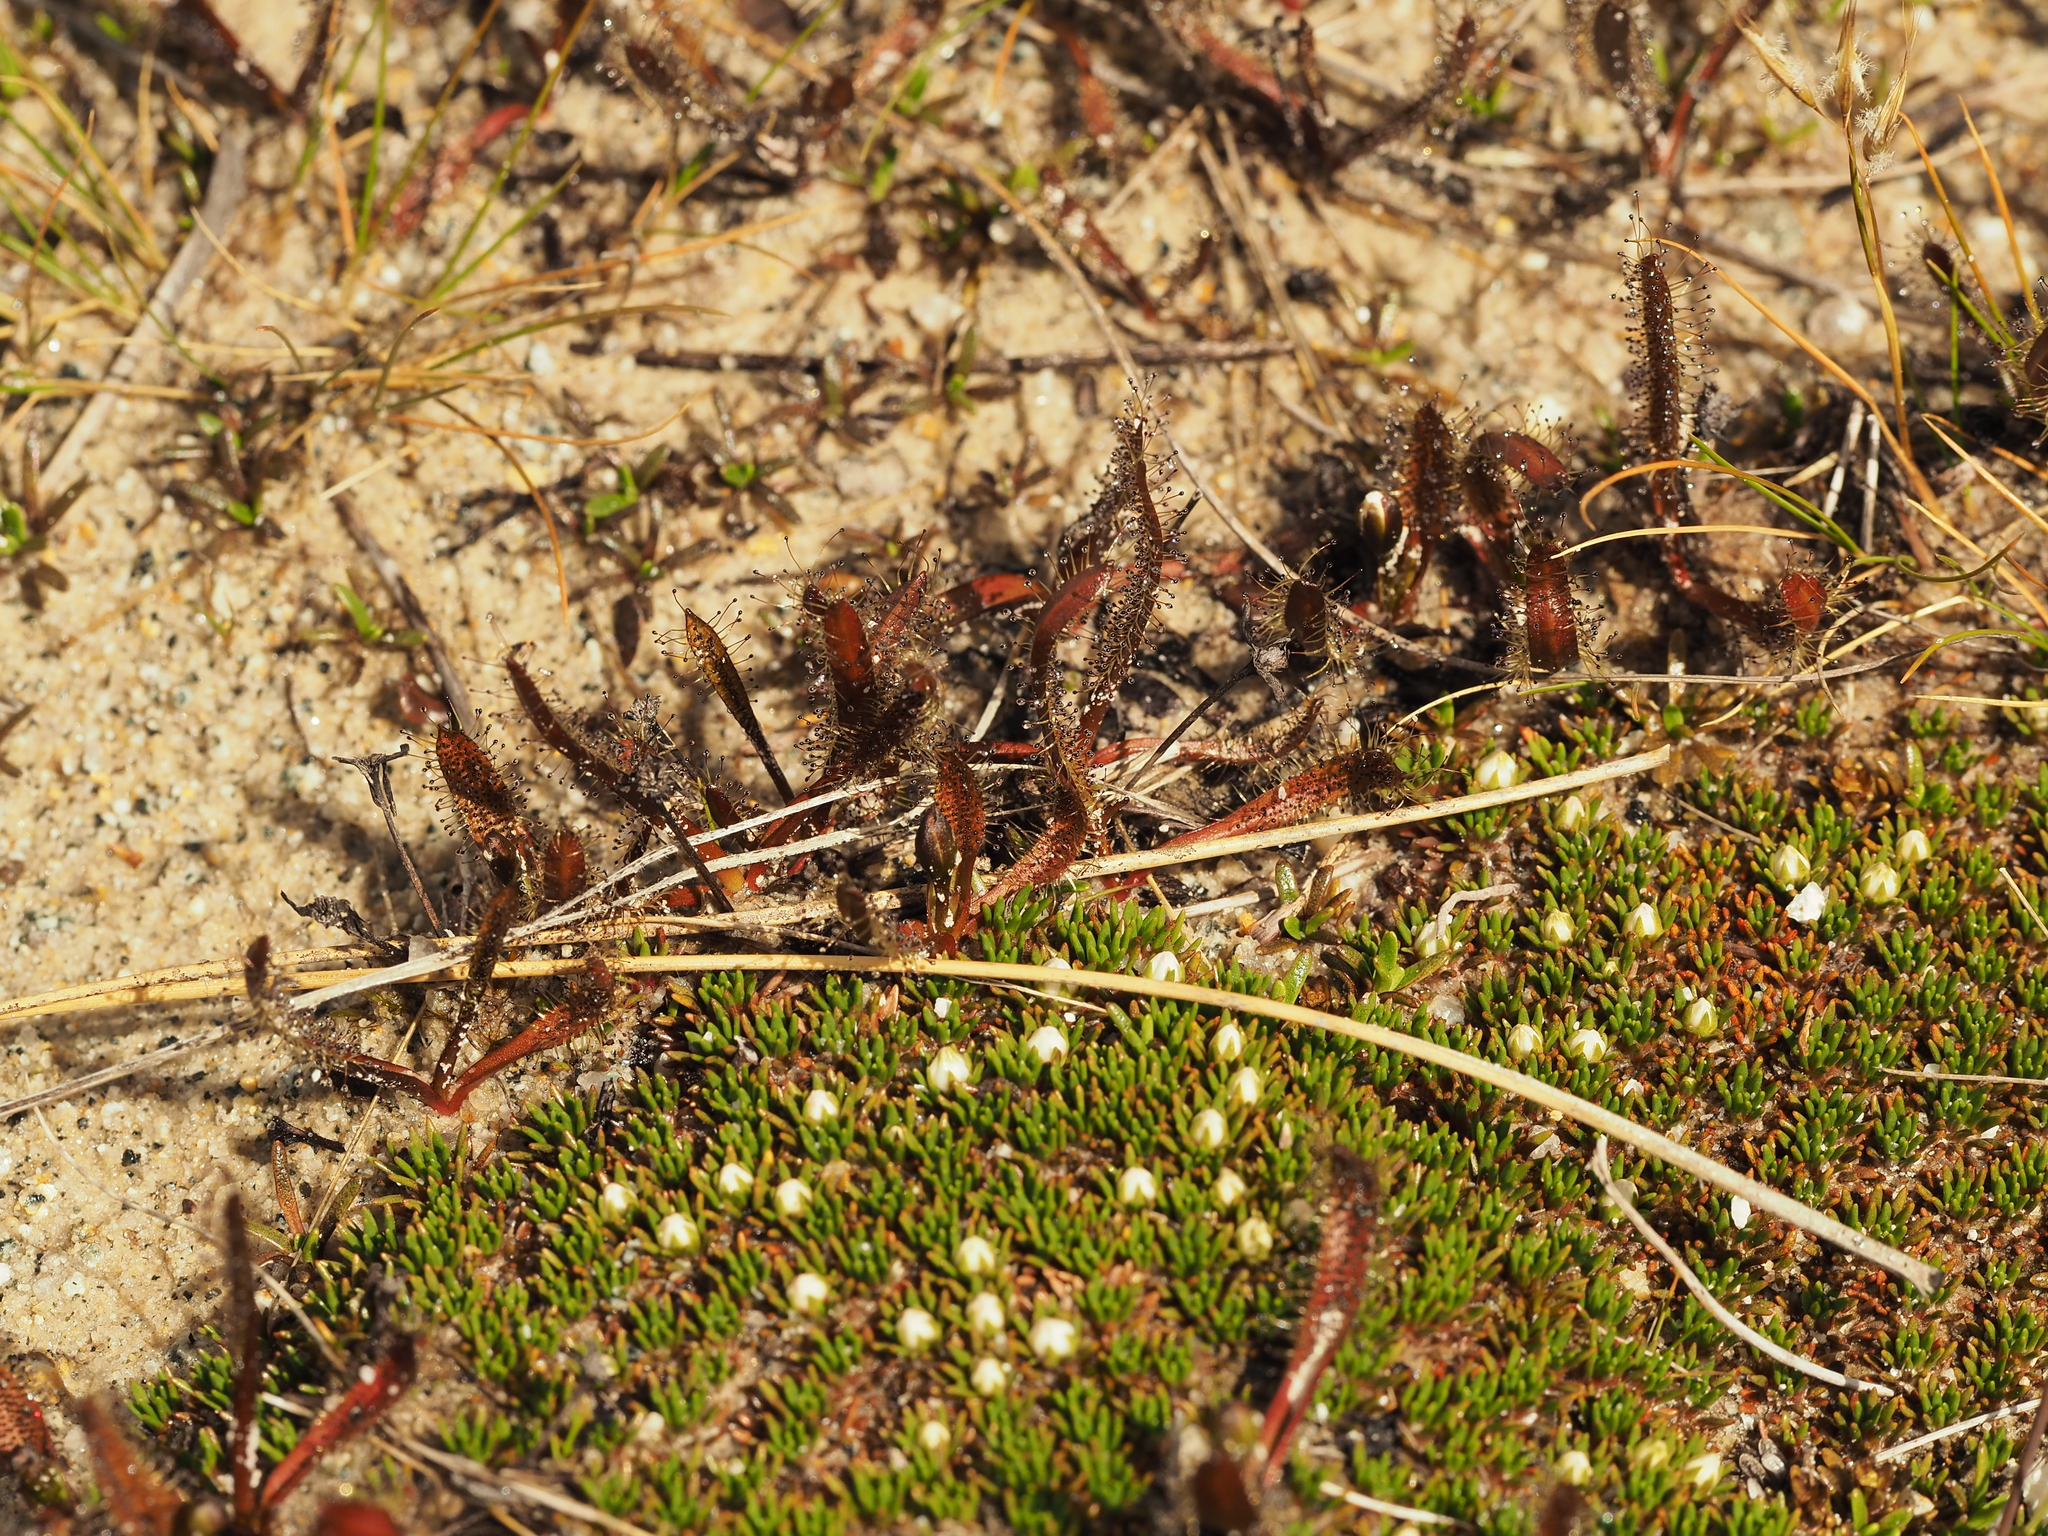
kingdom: Plantae
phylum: Tracheophyta
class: Magnoliopsida
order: Caryophyllales
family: Droseraceae
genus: Drosera
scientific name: Drosera arcturi
